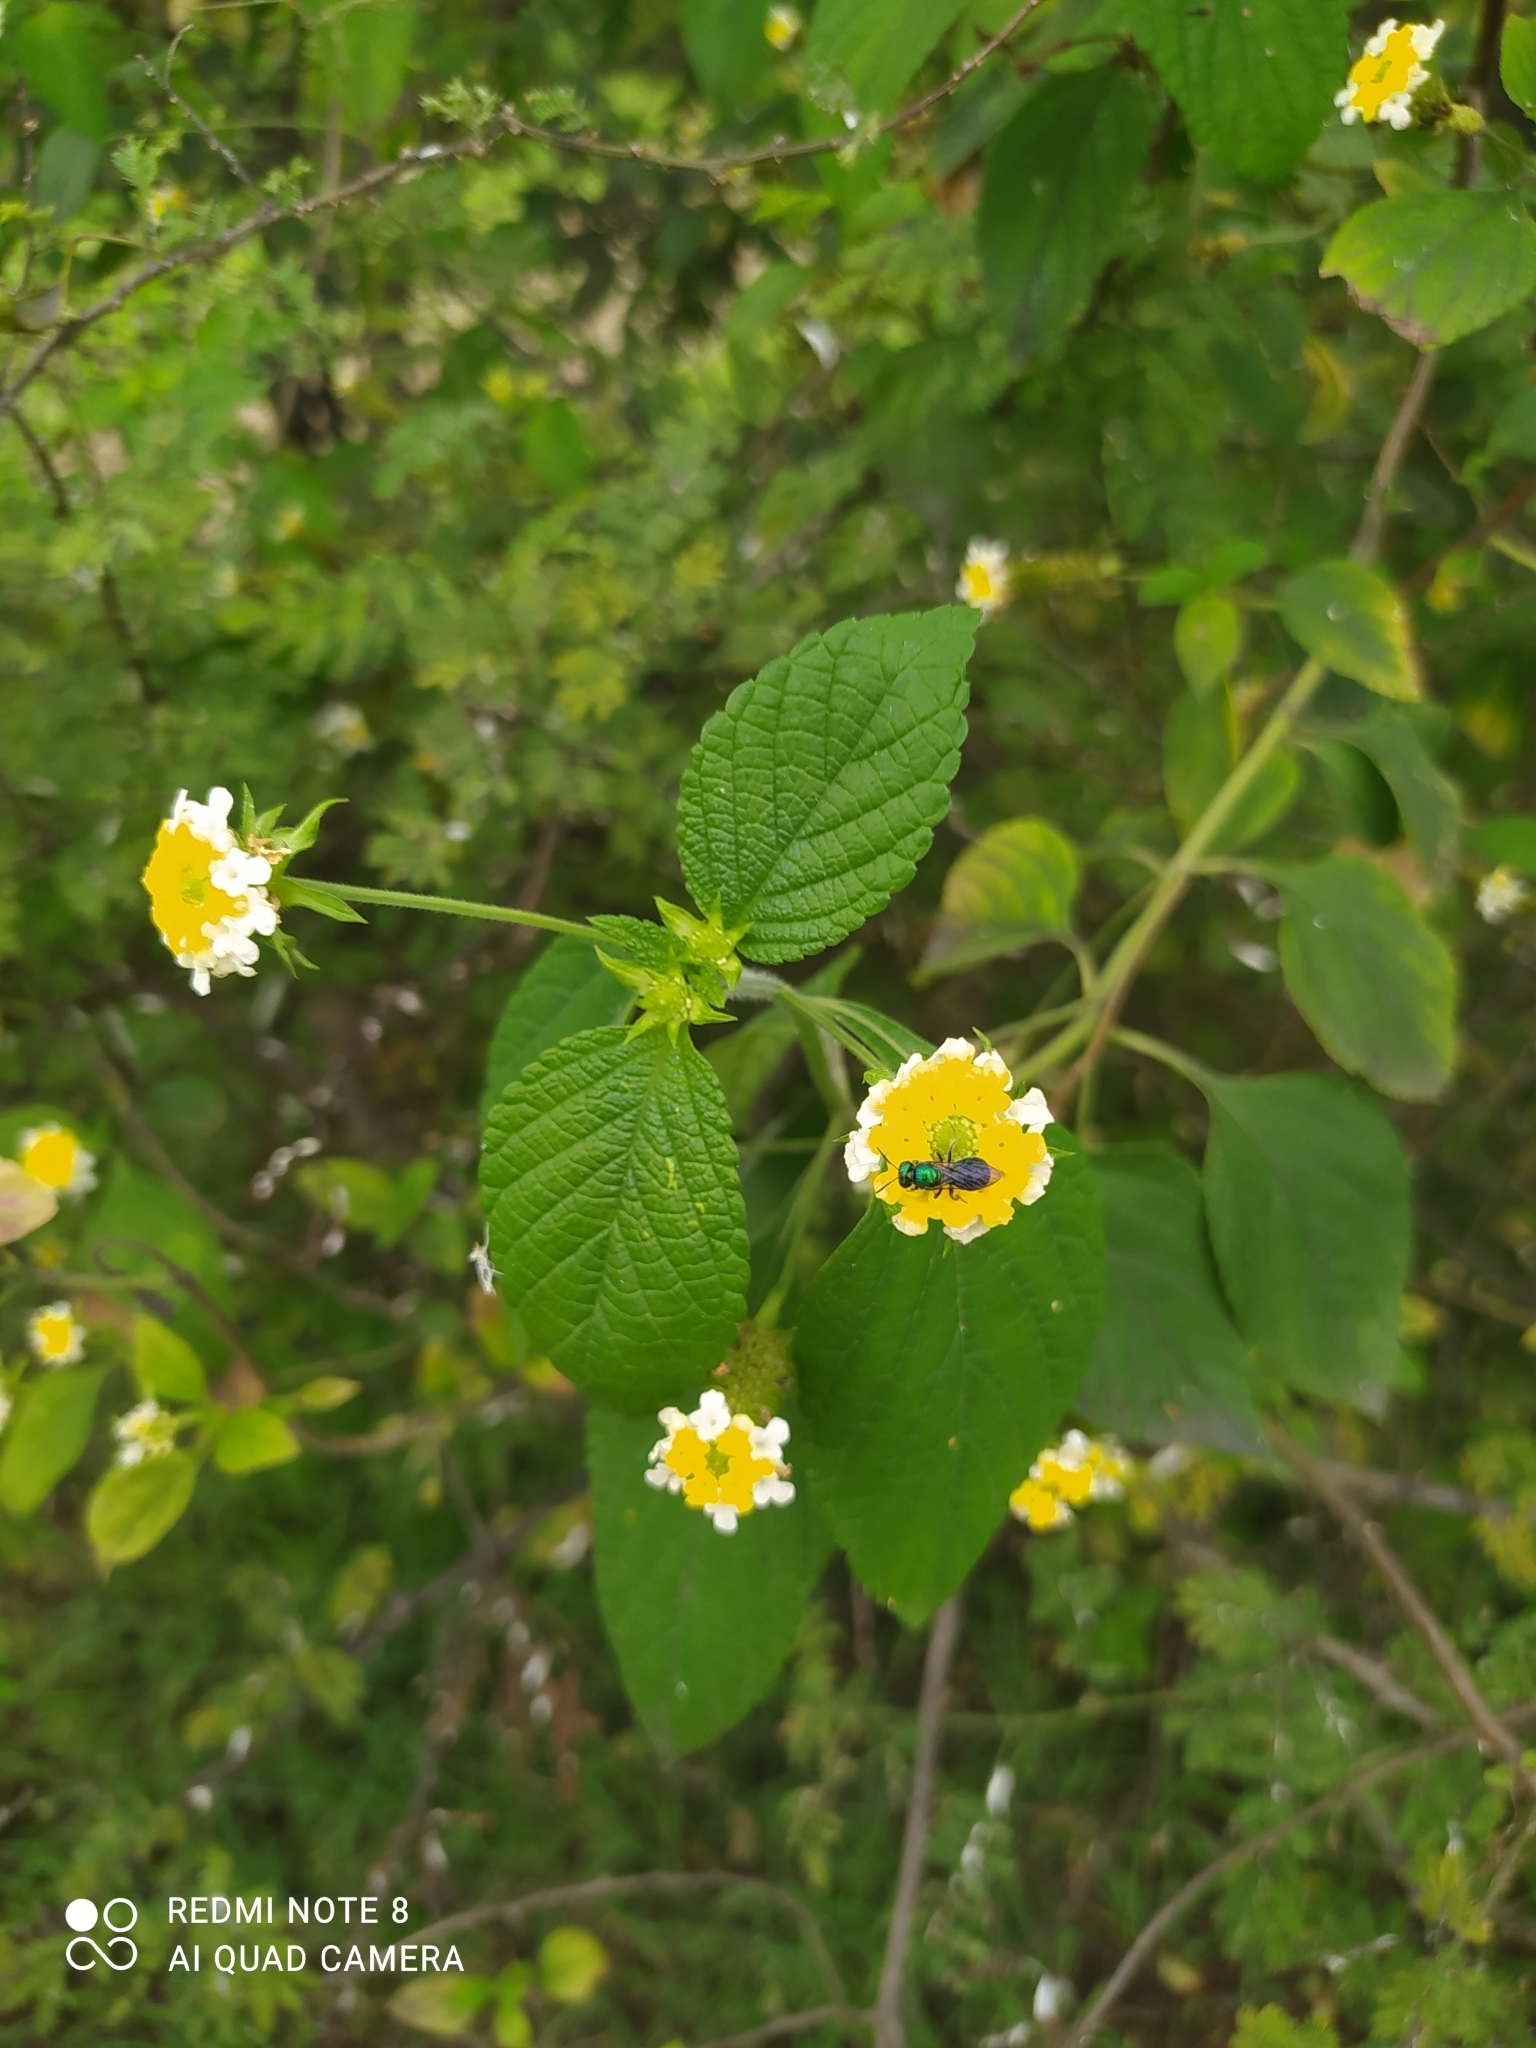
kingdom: Plantae
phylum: Tracheophyta
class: Magnoliopsida
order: Lamiales
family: Verbenaceae
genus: Lantana
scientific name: Lantana camara
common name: Lantana
